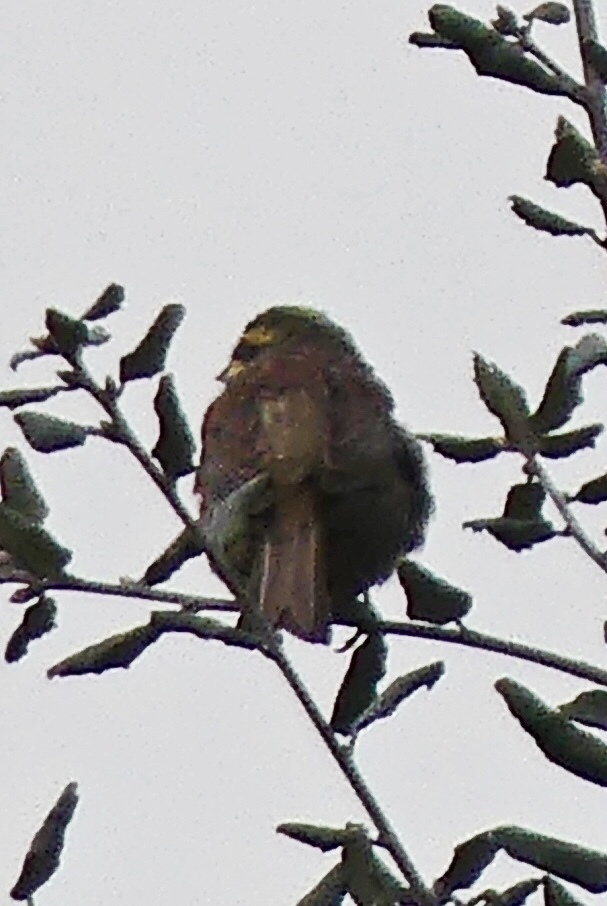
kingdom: Animalia
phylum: Chordata
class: Aves
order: Passeriformes
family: Emberizidae
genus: Emberiza
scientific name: Emberiza cirlus
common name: Cirl bunting
